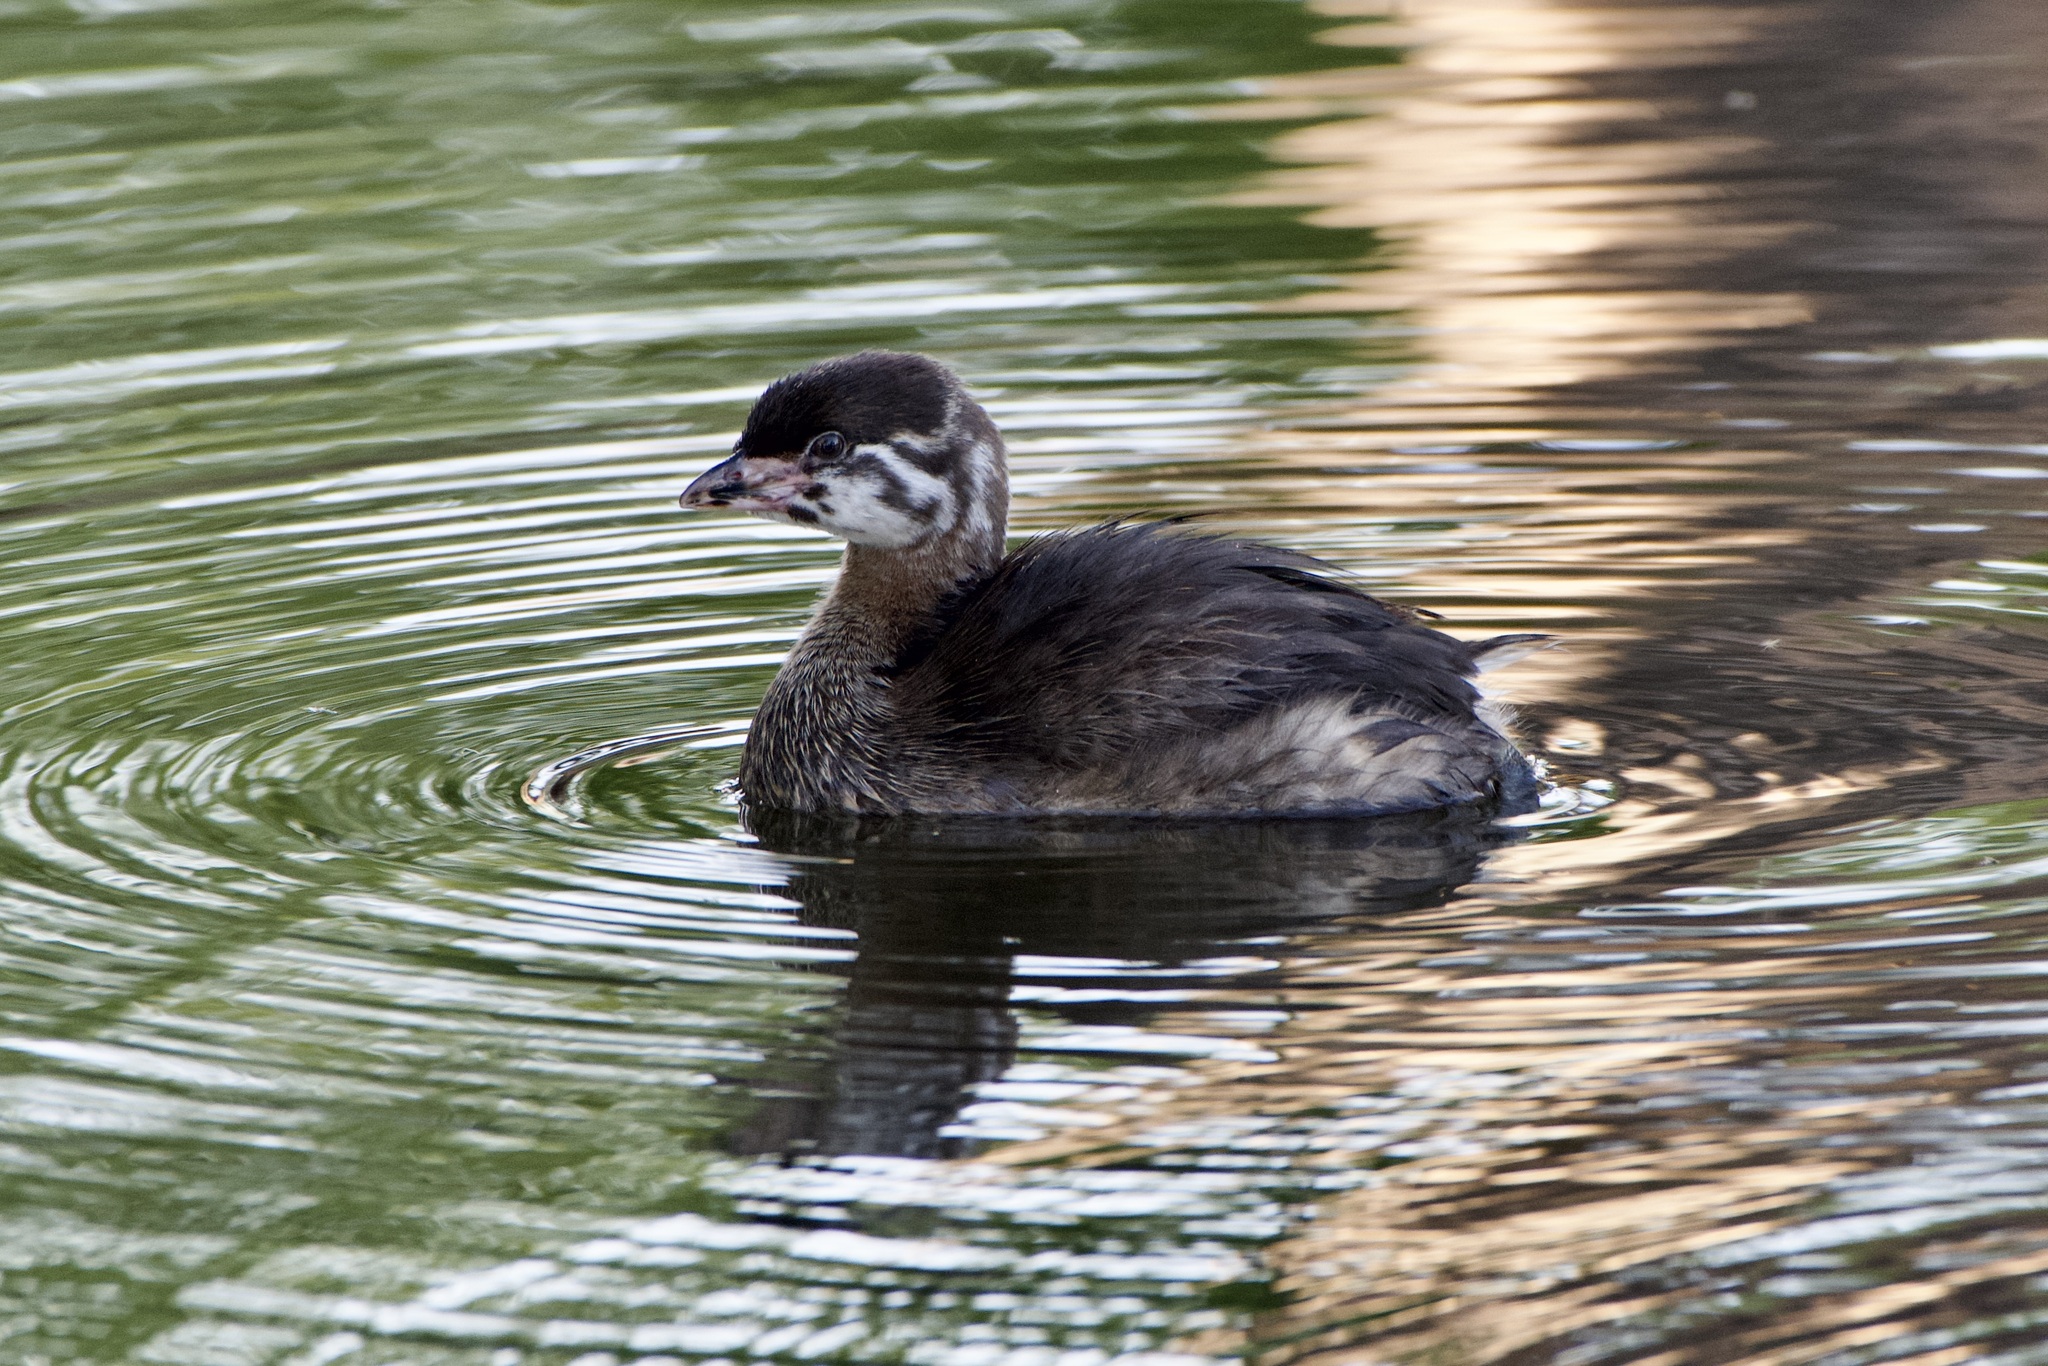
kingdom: Animalia
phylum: Chordata
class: Aves
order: Podicipediformes
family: Podicipedidae
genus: Podilymbus
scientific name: Podilymbus podiceps
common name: Pied-billed grebe
